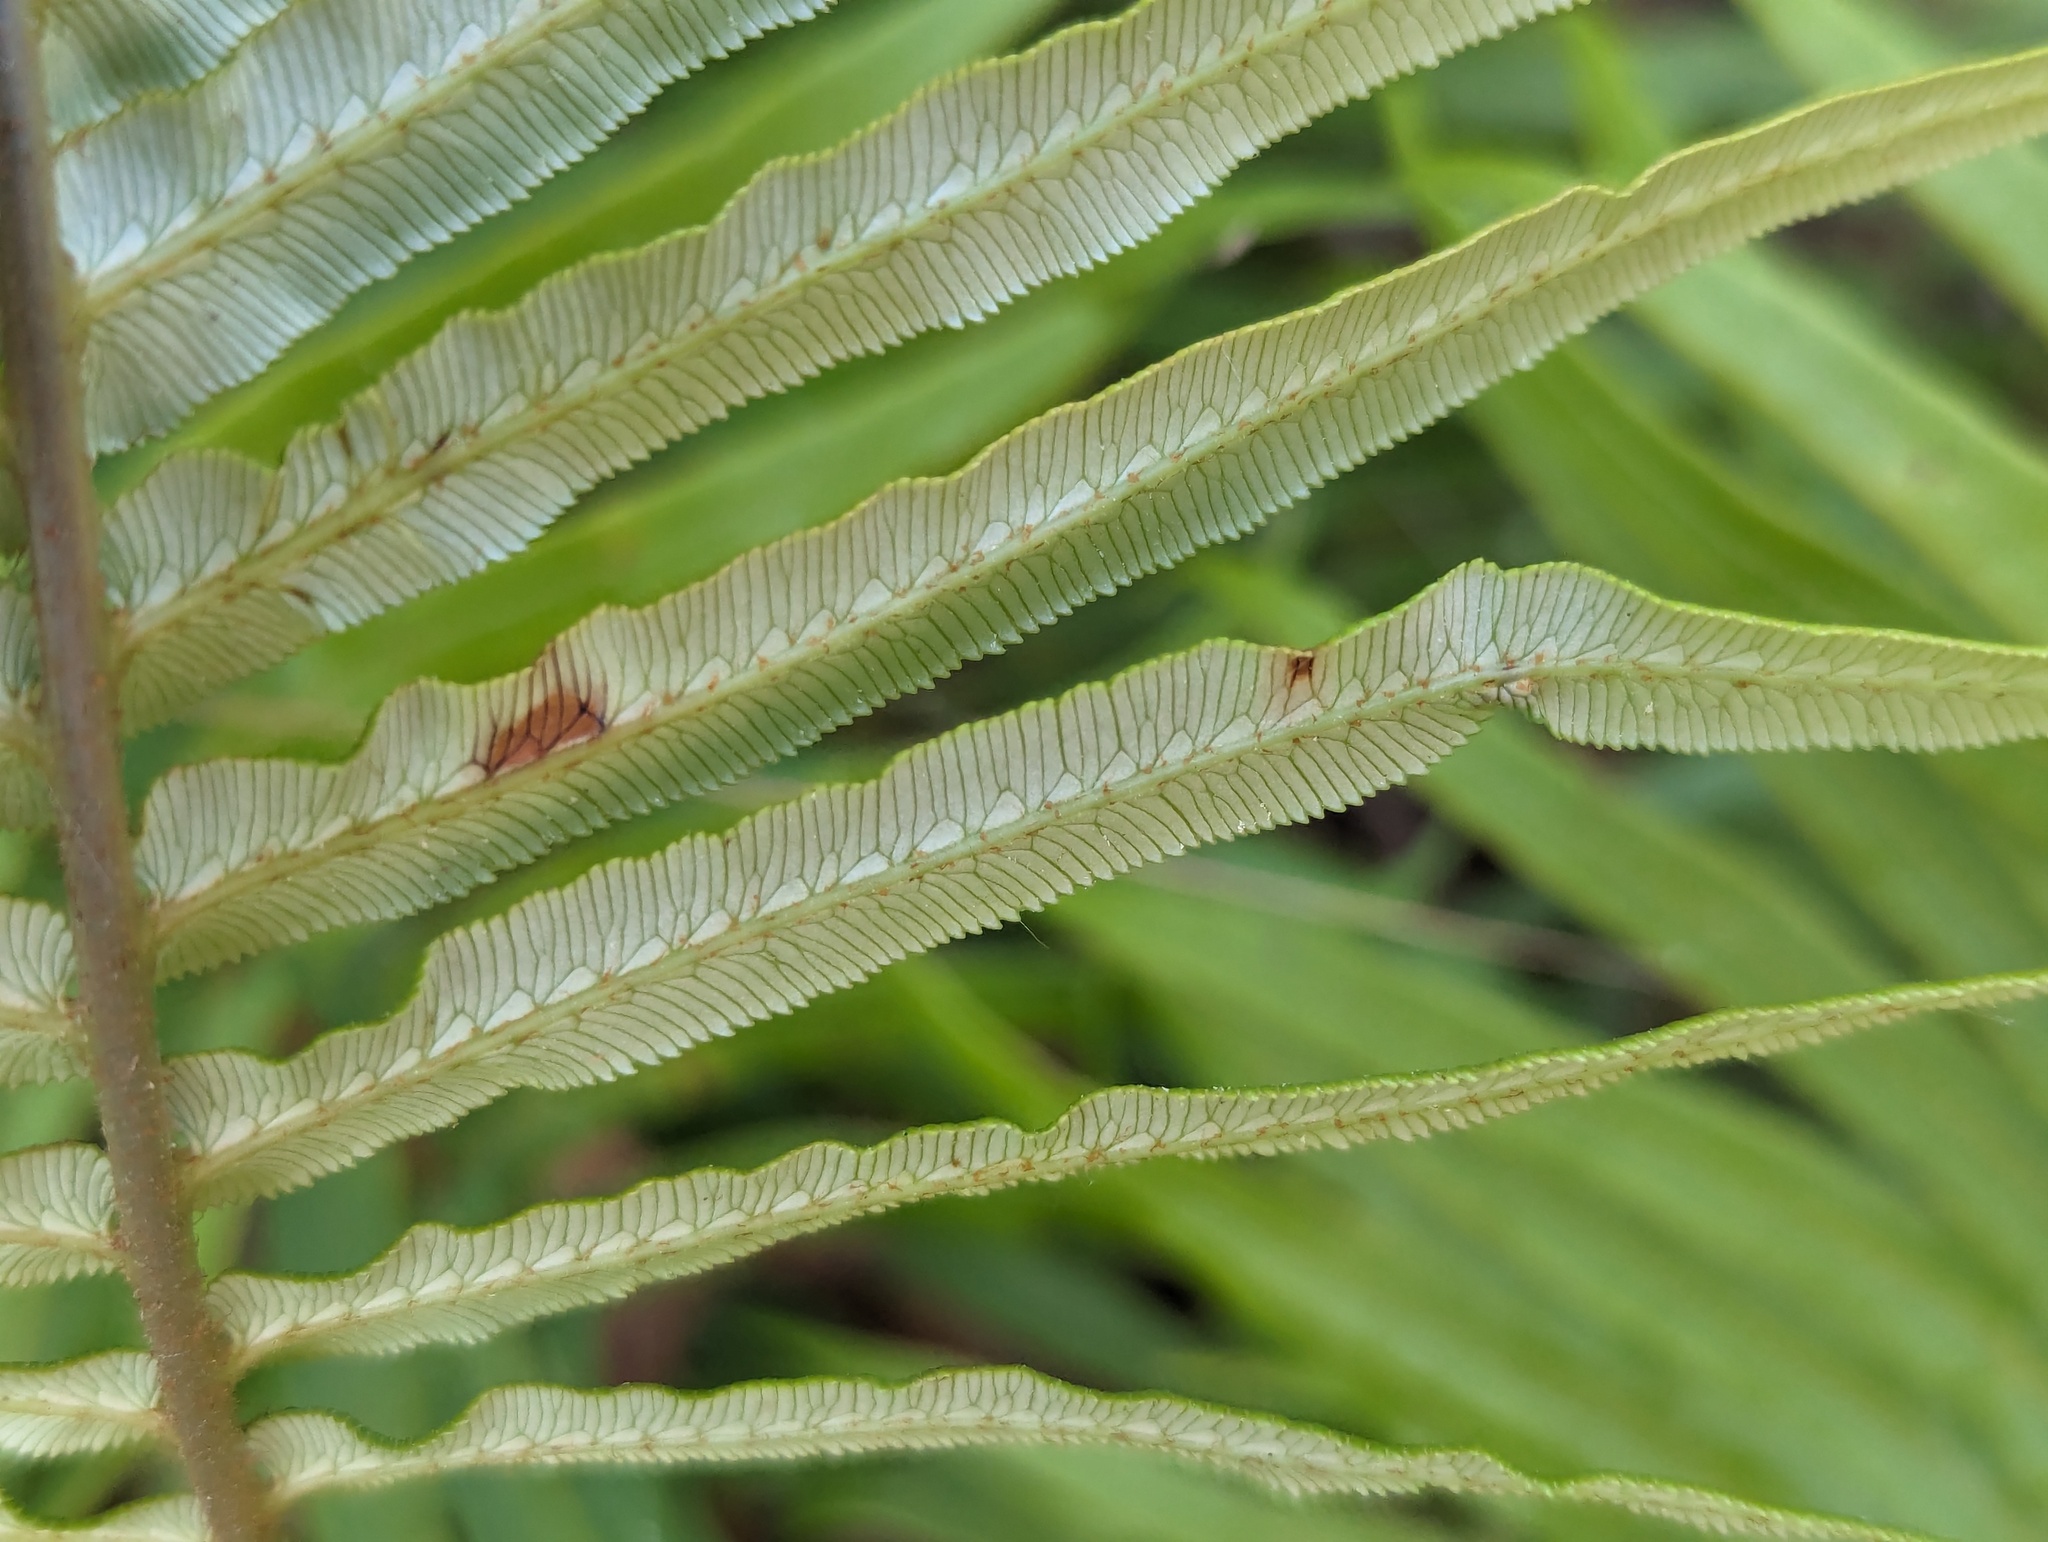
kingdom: Plantae
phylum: Tracheophyta
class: Polypodiopsida
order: Polypodiales
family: Blechnaceae
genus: Brainea
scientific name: Brainea insignis
